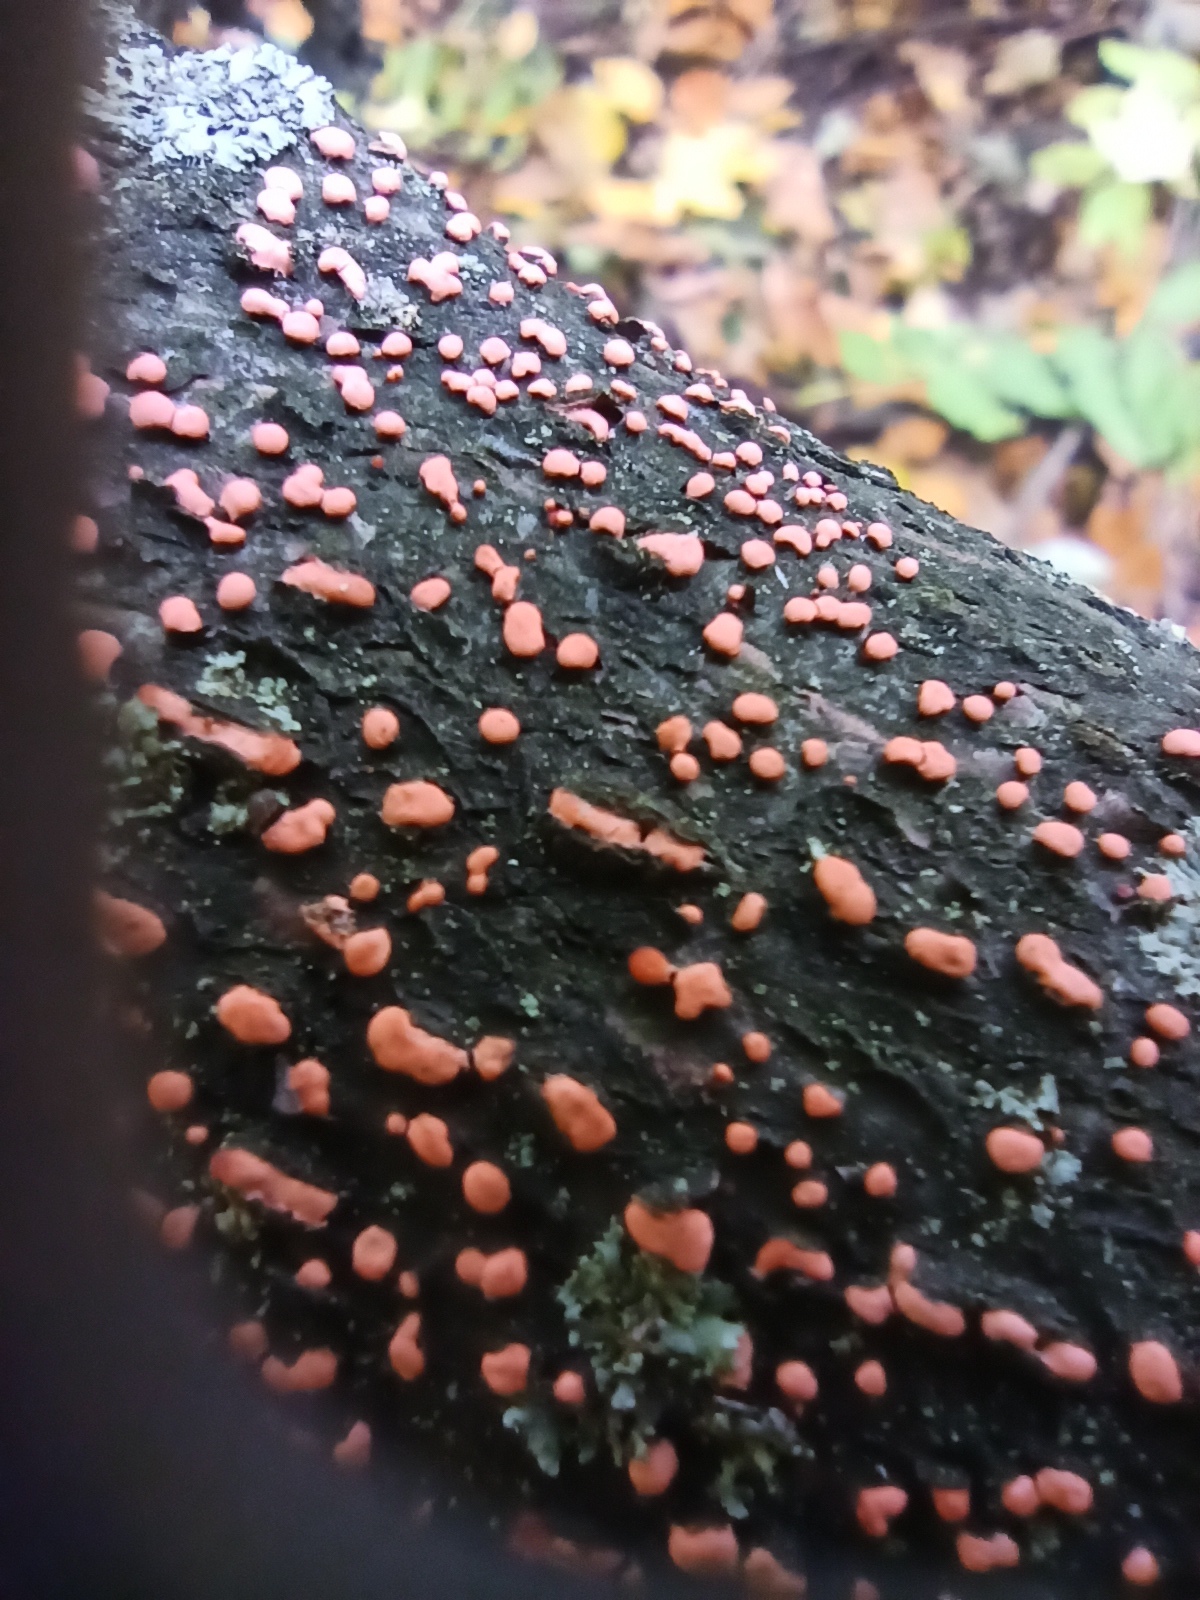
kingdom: Fungi
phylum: Ascomycota
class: Sordariomycetes
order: Hypocreales
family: Nectriaceae
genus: Nectria
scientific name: Nectria cinnabarina
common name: Coral spot
